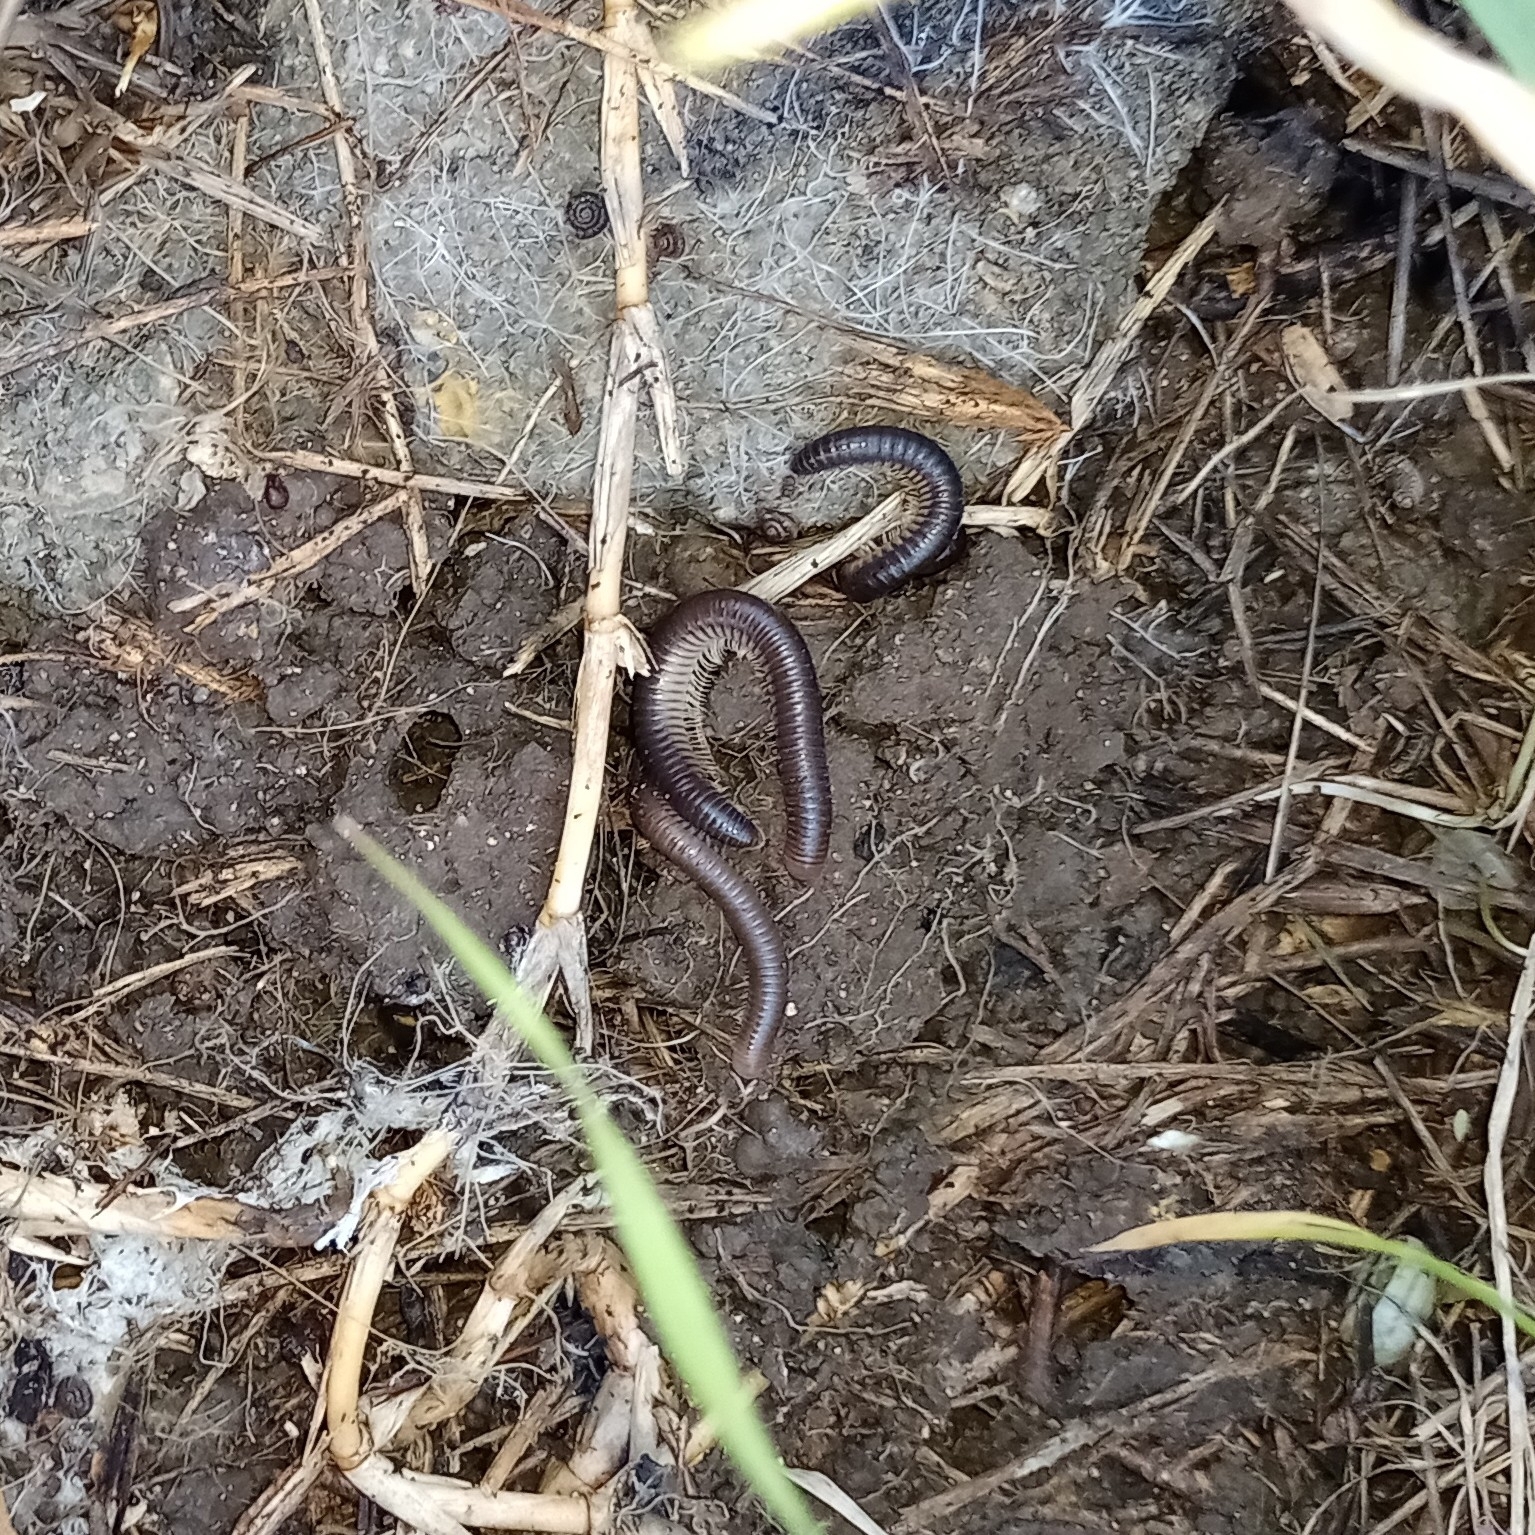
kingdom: Animalia
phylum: Arthropoda
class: Diplopoda
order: Julida
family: Julidae
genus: Pachyiulus
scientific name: Pachyiulus flavipes
